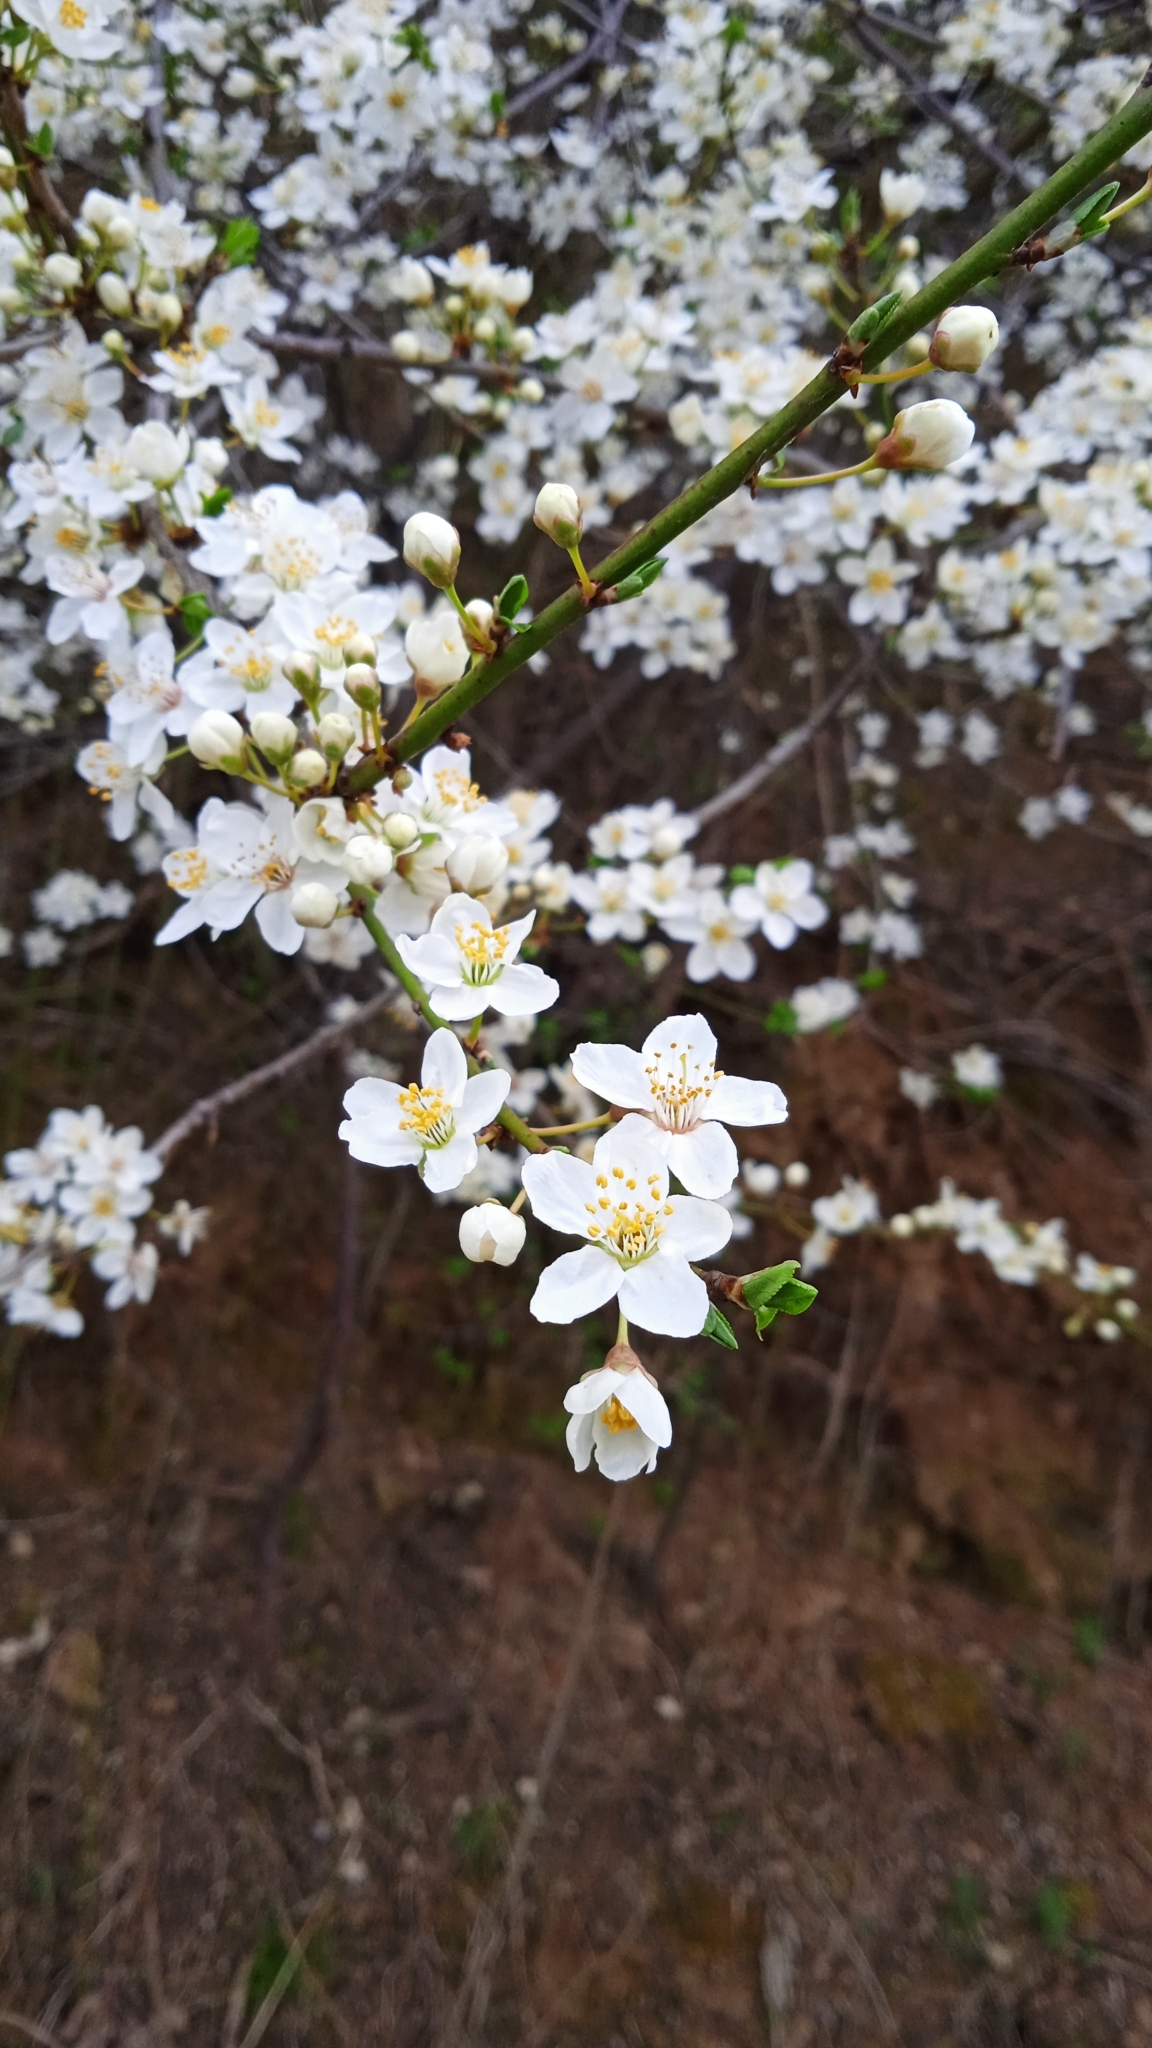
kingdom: Plantae
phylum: Tracheophyta
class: Magnoliopsida
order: Rosales
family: Rosaceae
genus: Prunus
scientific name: Prunus cerasifera
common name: Cherry plum
